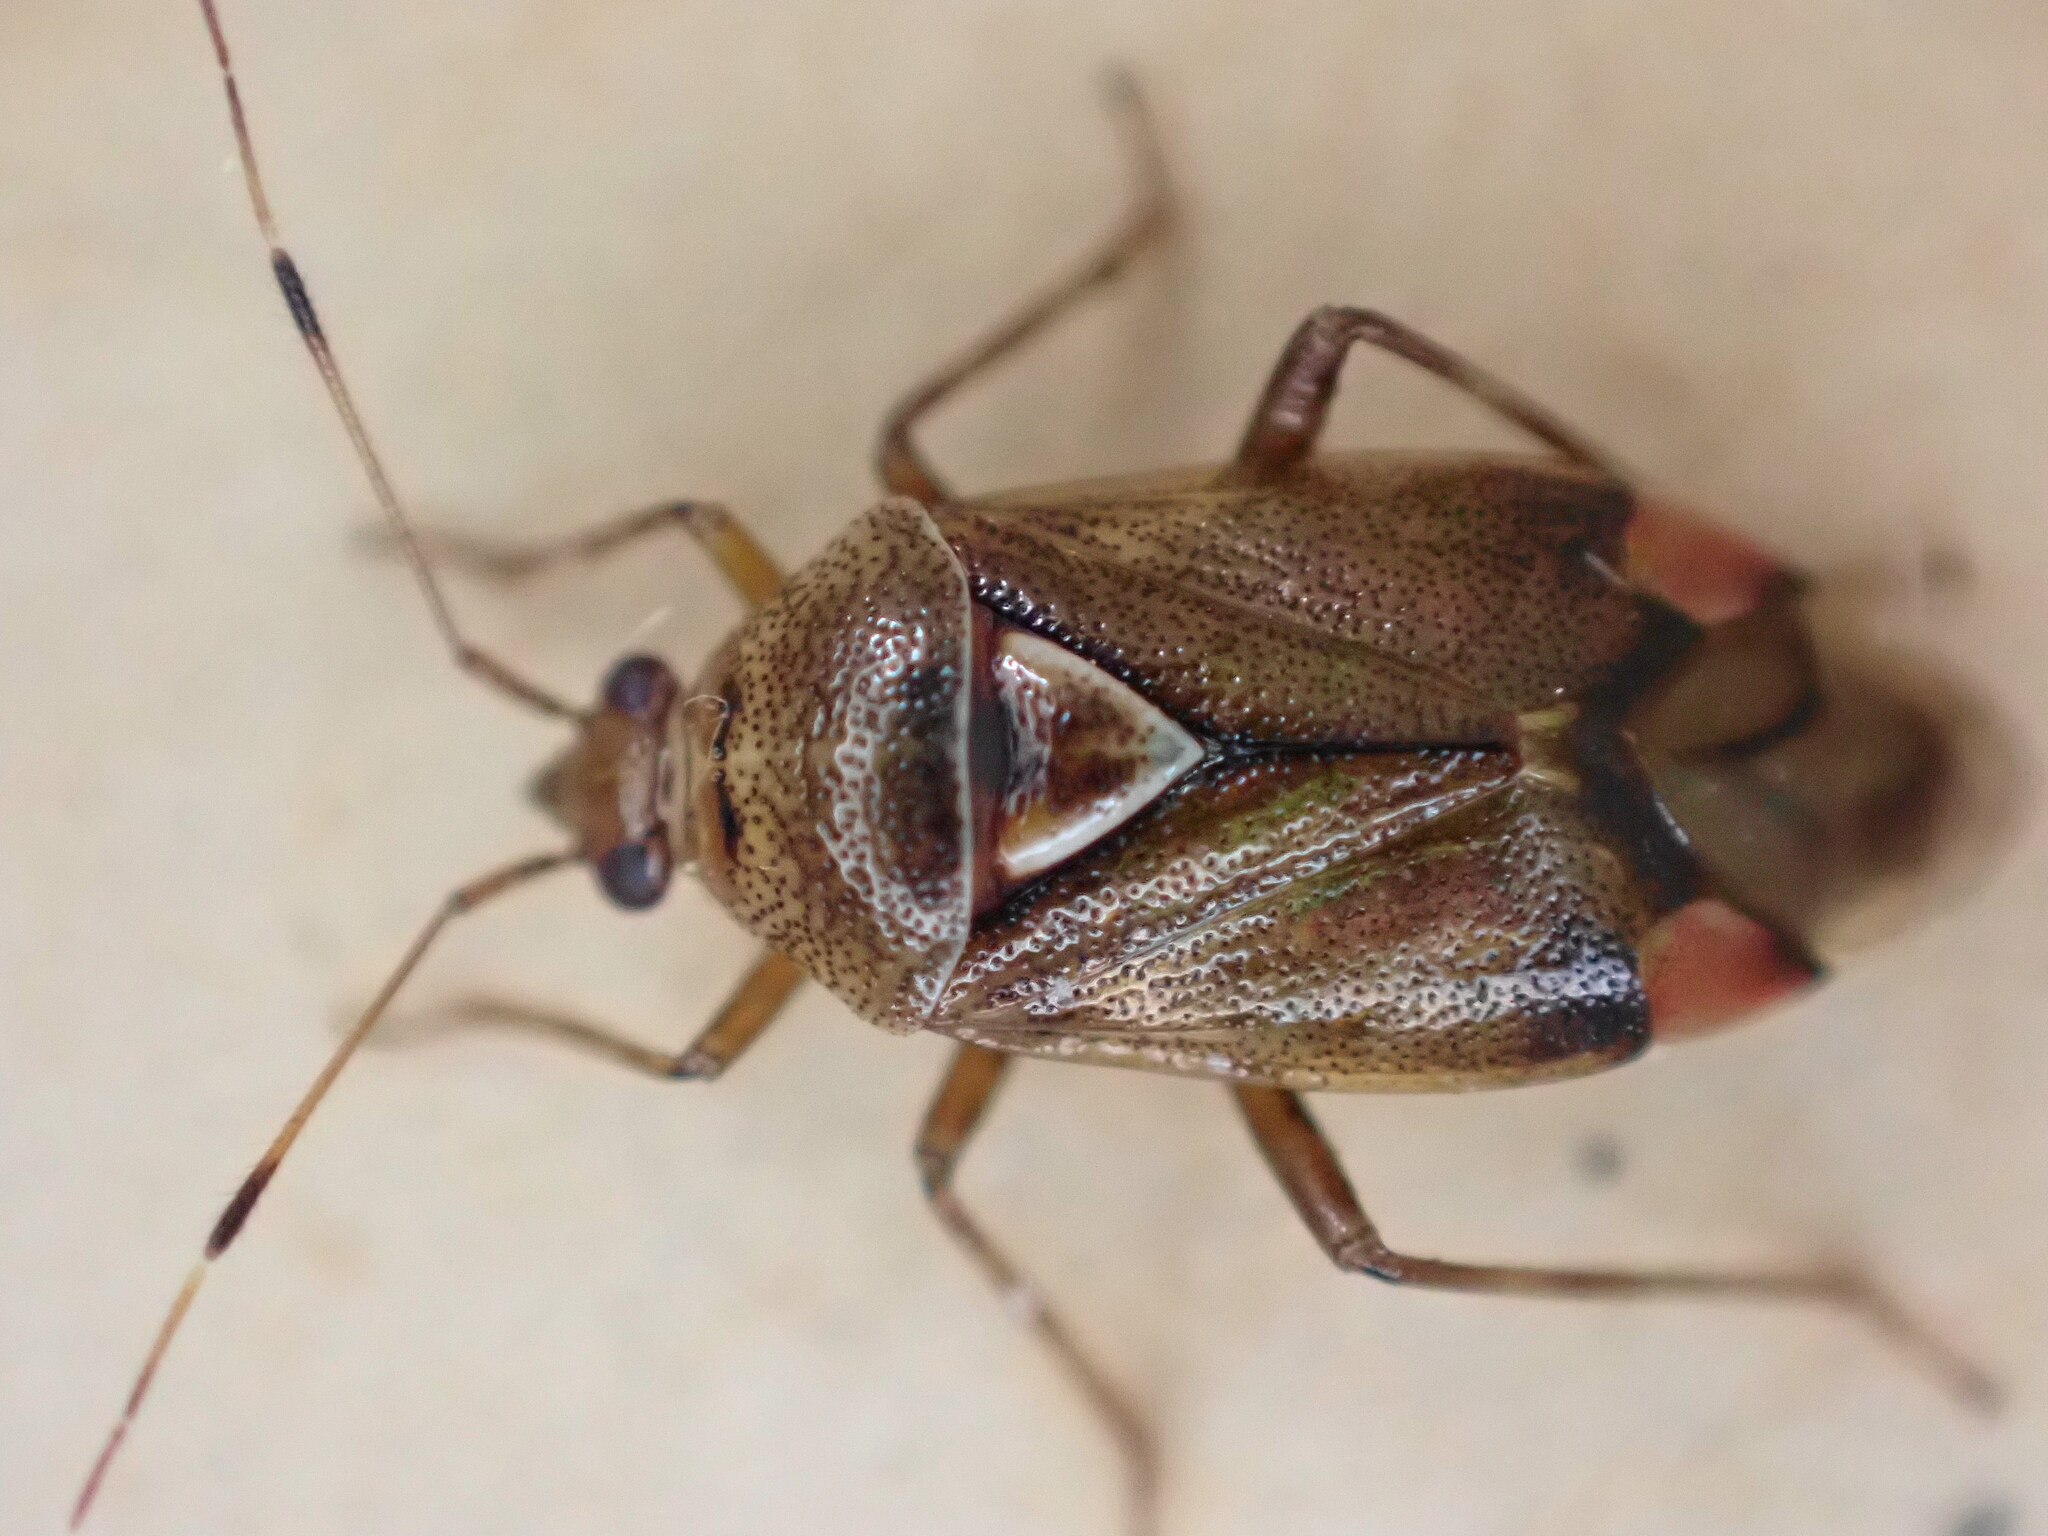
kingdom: Animalia
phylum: Arthropoda
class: Insecta
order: Hemiptera
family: Miridae
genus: Deraeocoris
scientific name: Deraeocoris flavilinea
